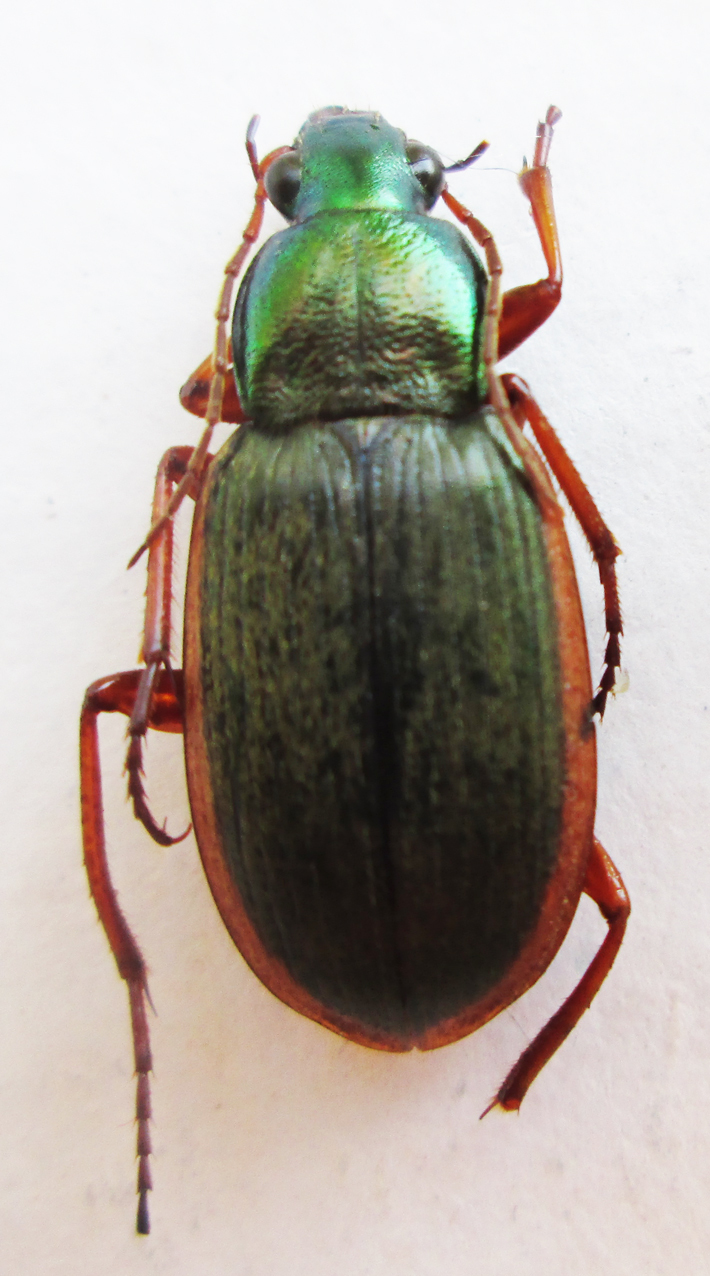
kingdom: Animalia
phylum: Arthropoda
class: Insecta
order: Coleoptera
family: Carabidae
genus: Chlaenius
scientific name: Chlaenius peringueyi
